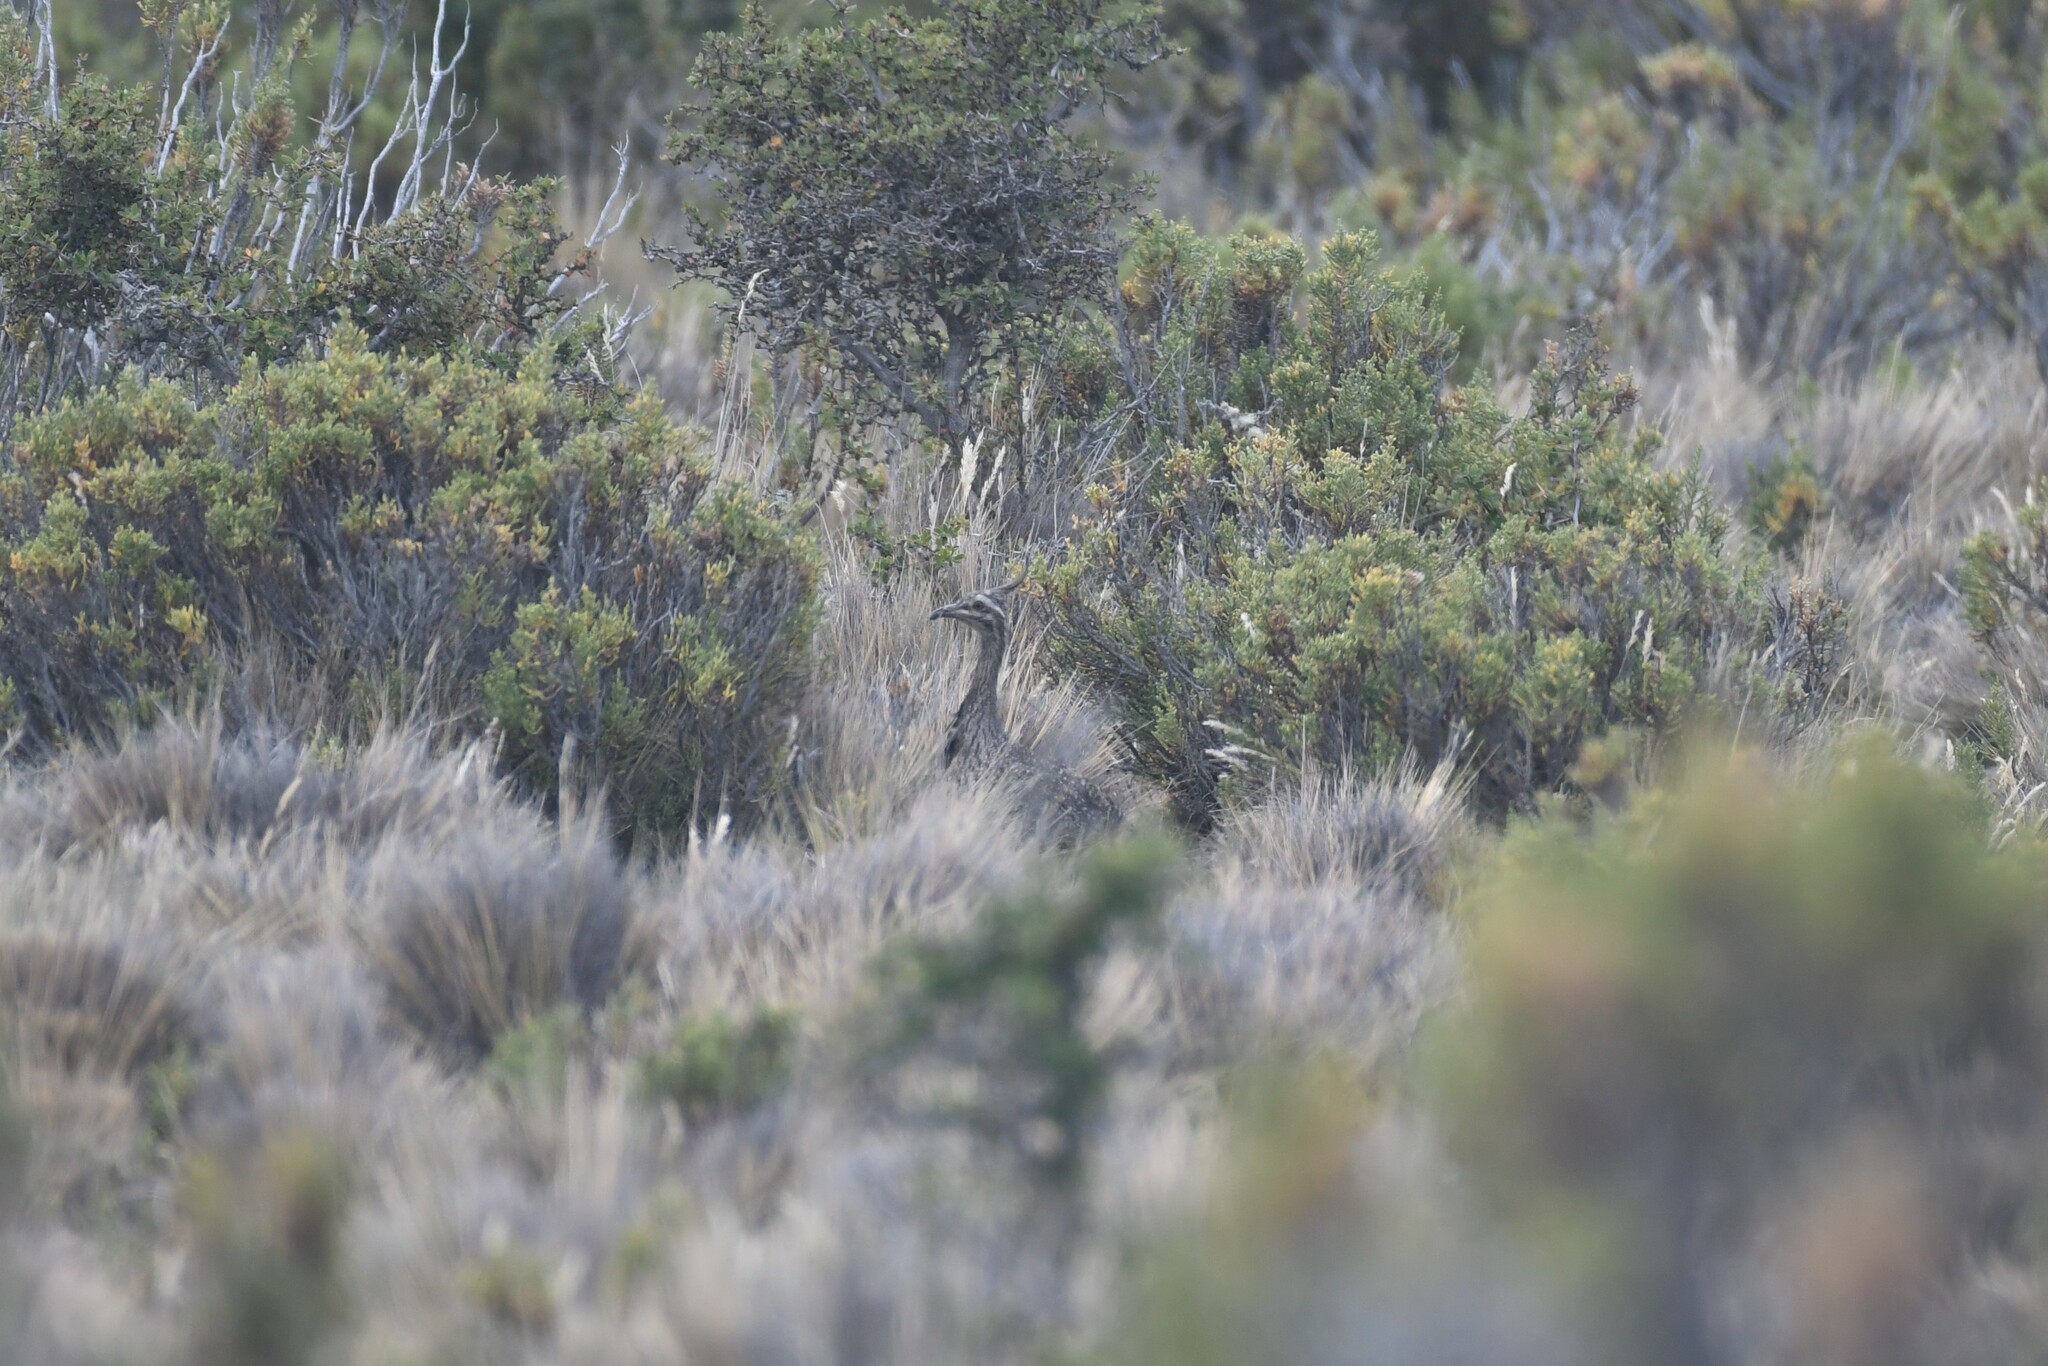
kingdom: Animalia
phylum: Chordata
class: Aves
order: Tinamiformes
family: Tinamidae
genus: Eudromia
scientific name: Eudromia elegans
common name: Elegant crested tinamou
